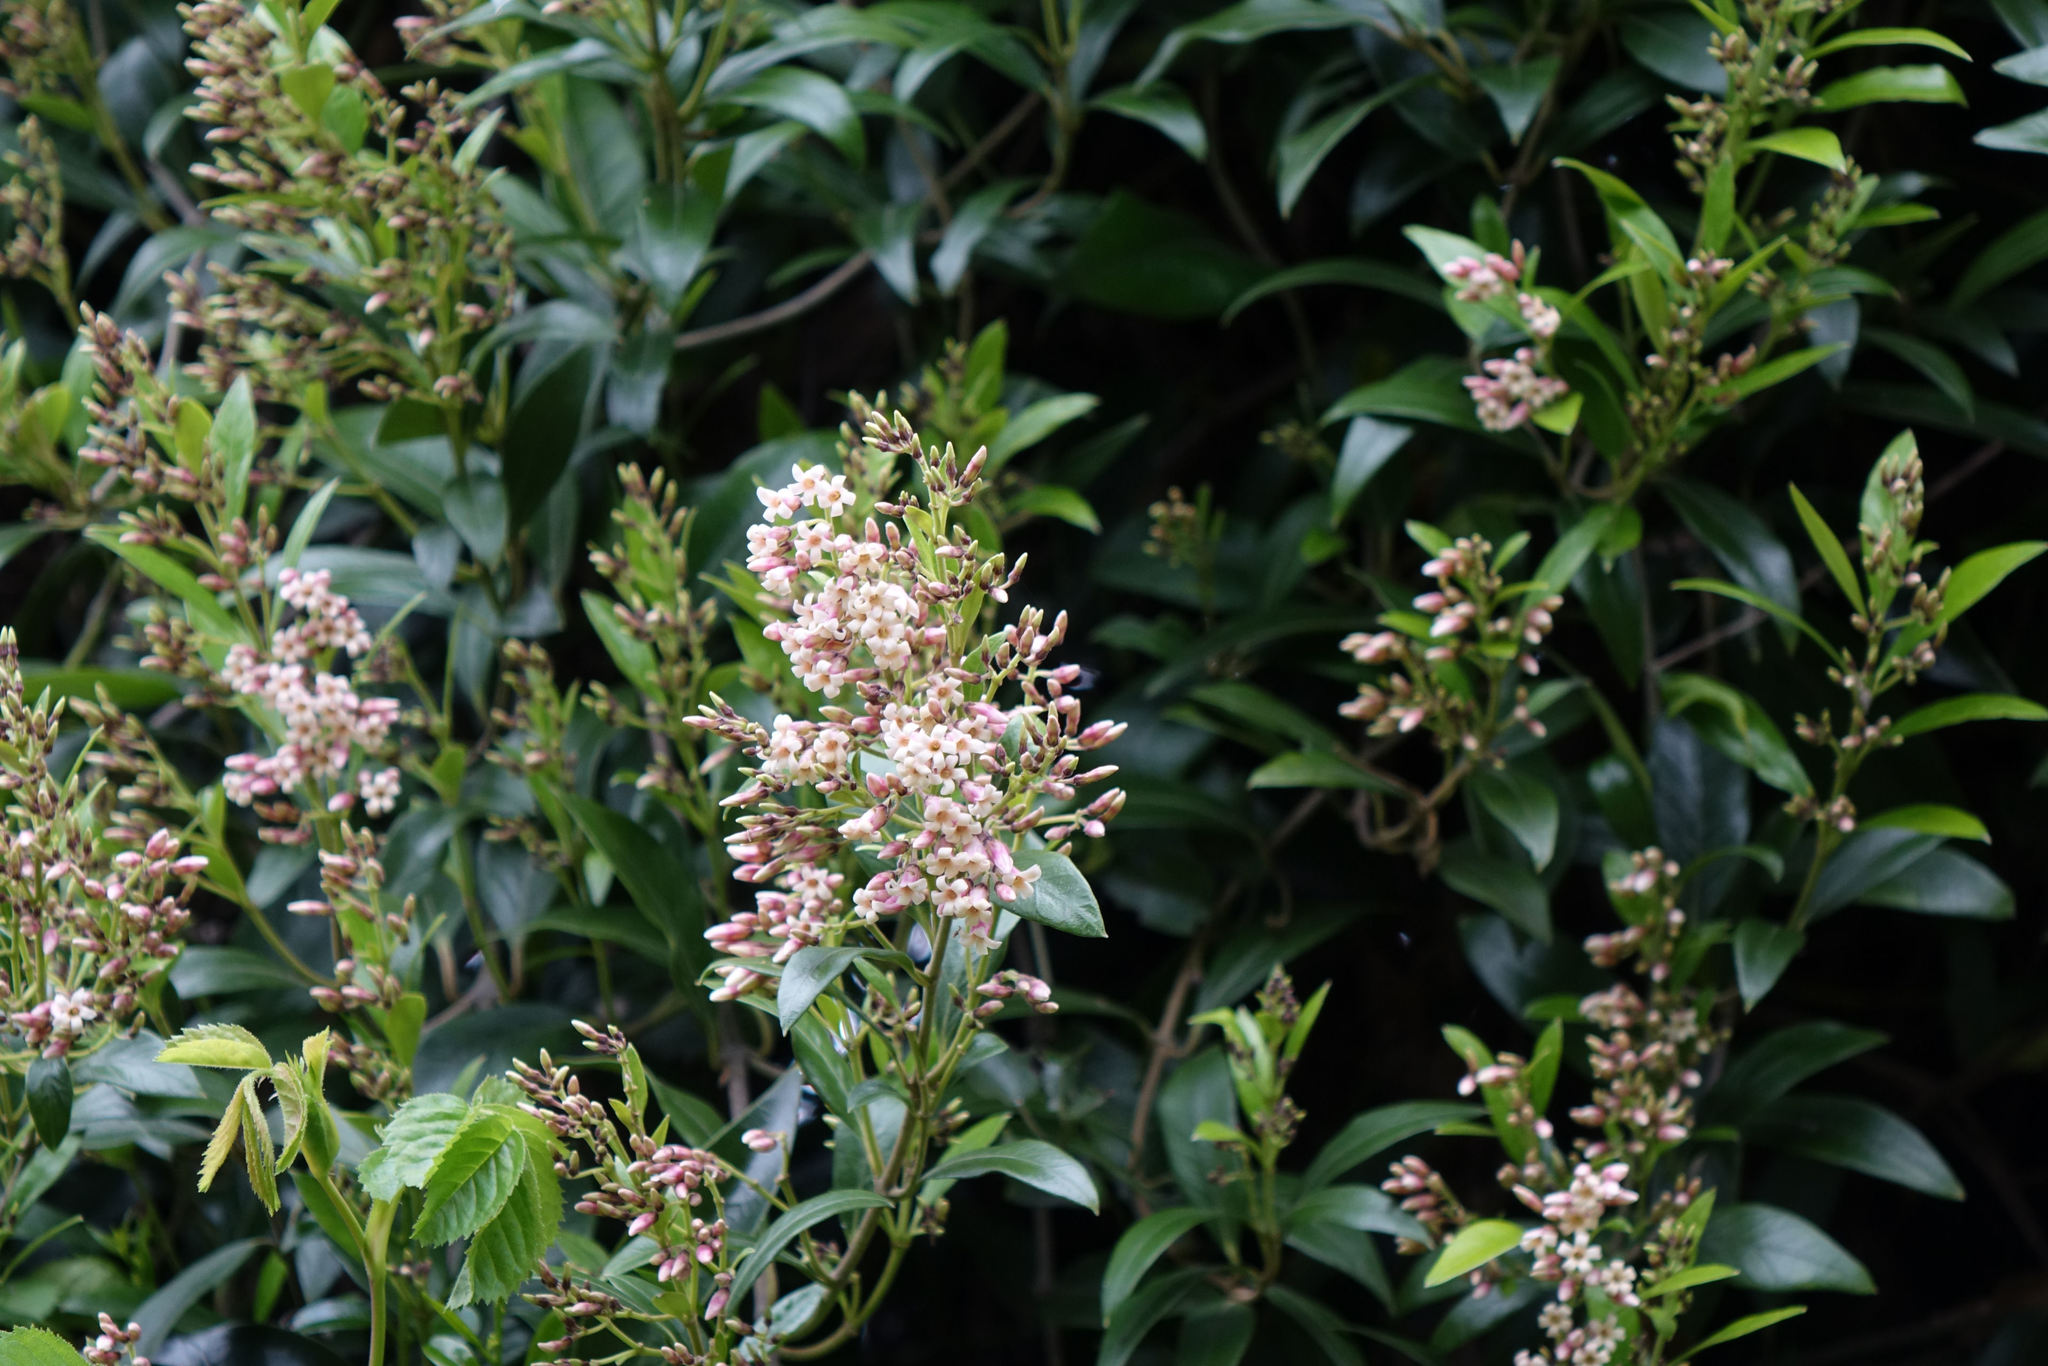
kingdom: Plantae
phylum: Tracheophyta
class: Magnoliopsida
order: Gentianales
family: Apocynaceae
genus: Parsonsia
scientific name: Parsonsia heterophylla
